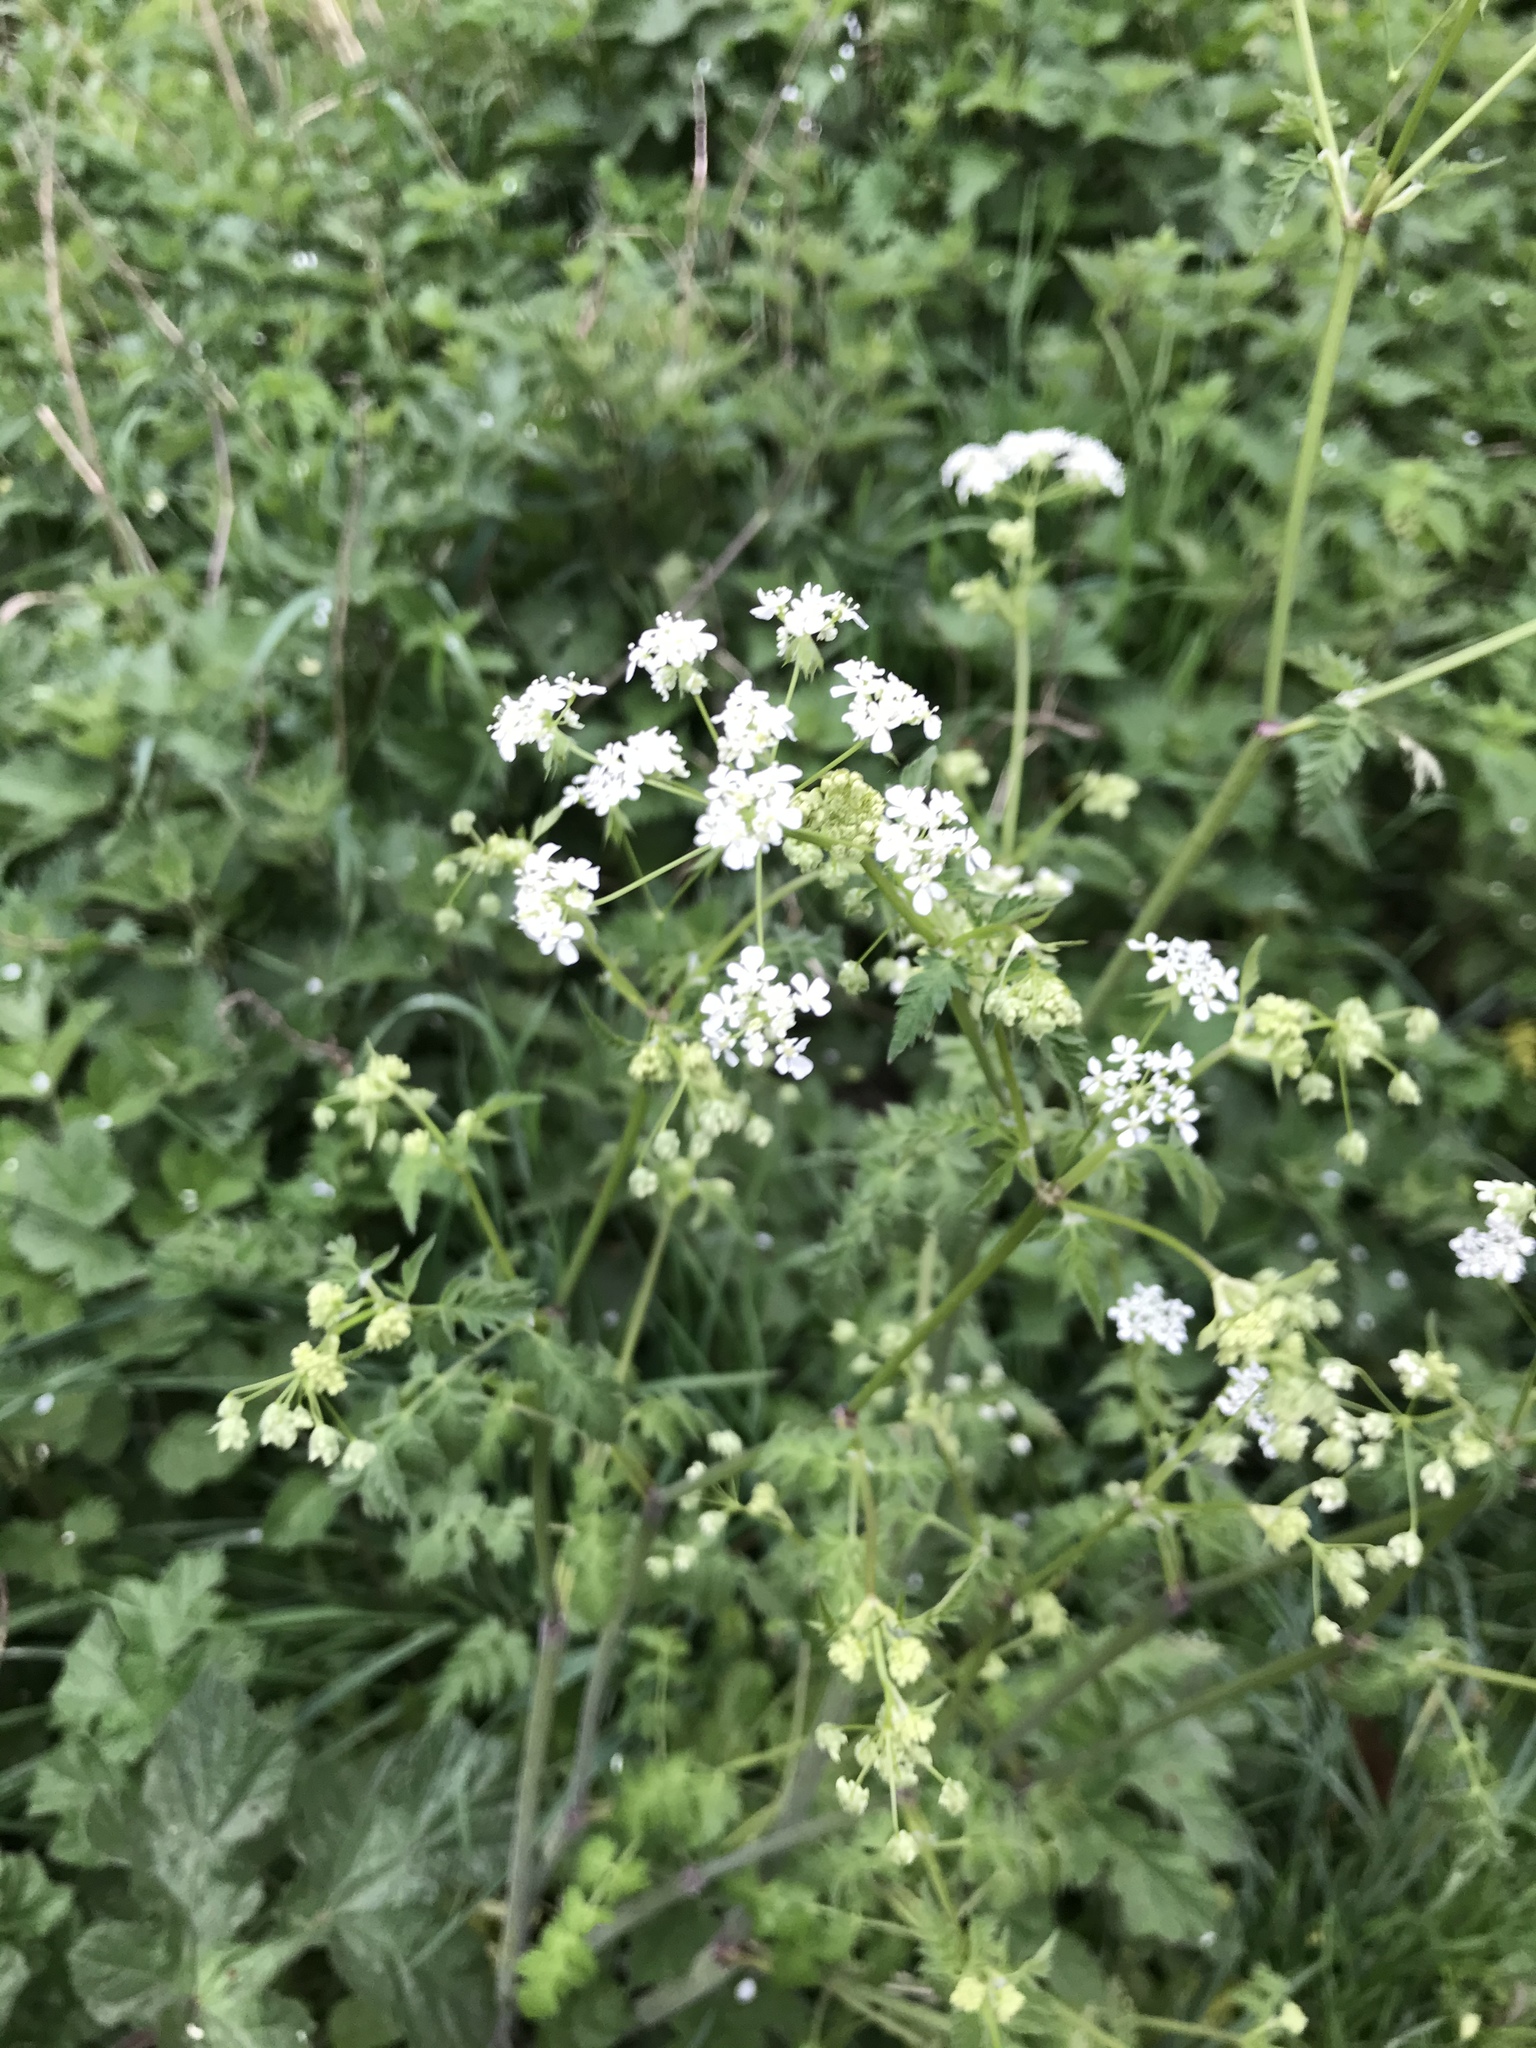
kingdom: Plantae
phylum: Tracheophyta
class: Magnoliopsida
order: Apiales
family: Apiaceae
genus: Anthriscus
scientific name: Anthriscus sylvestris
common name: Cow parsley
